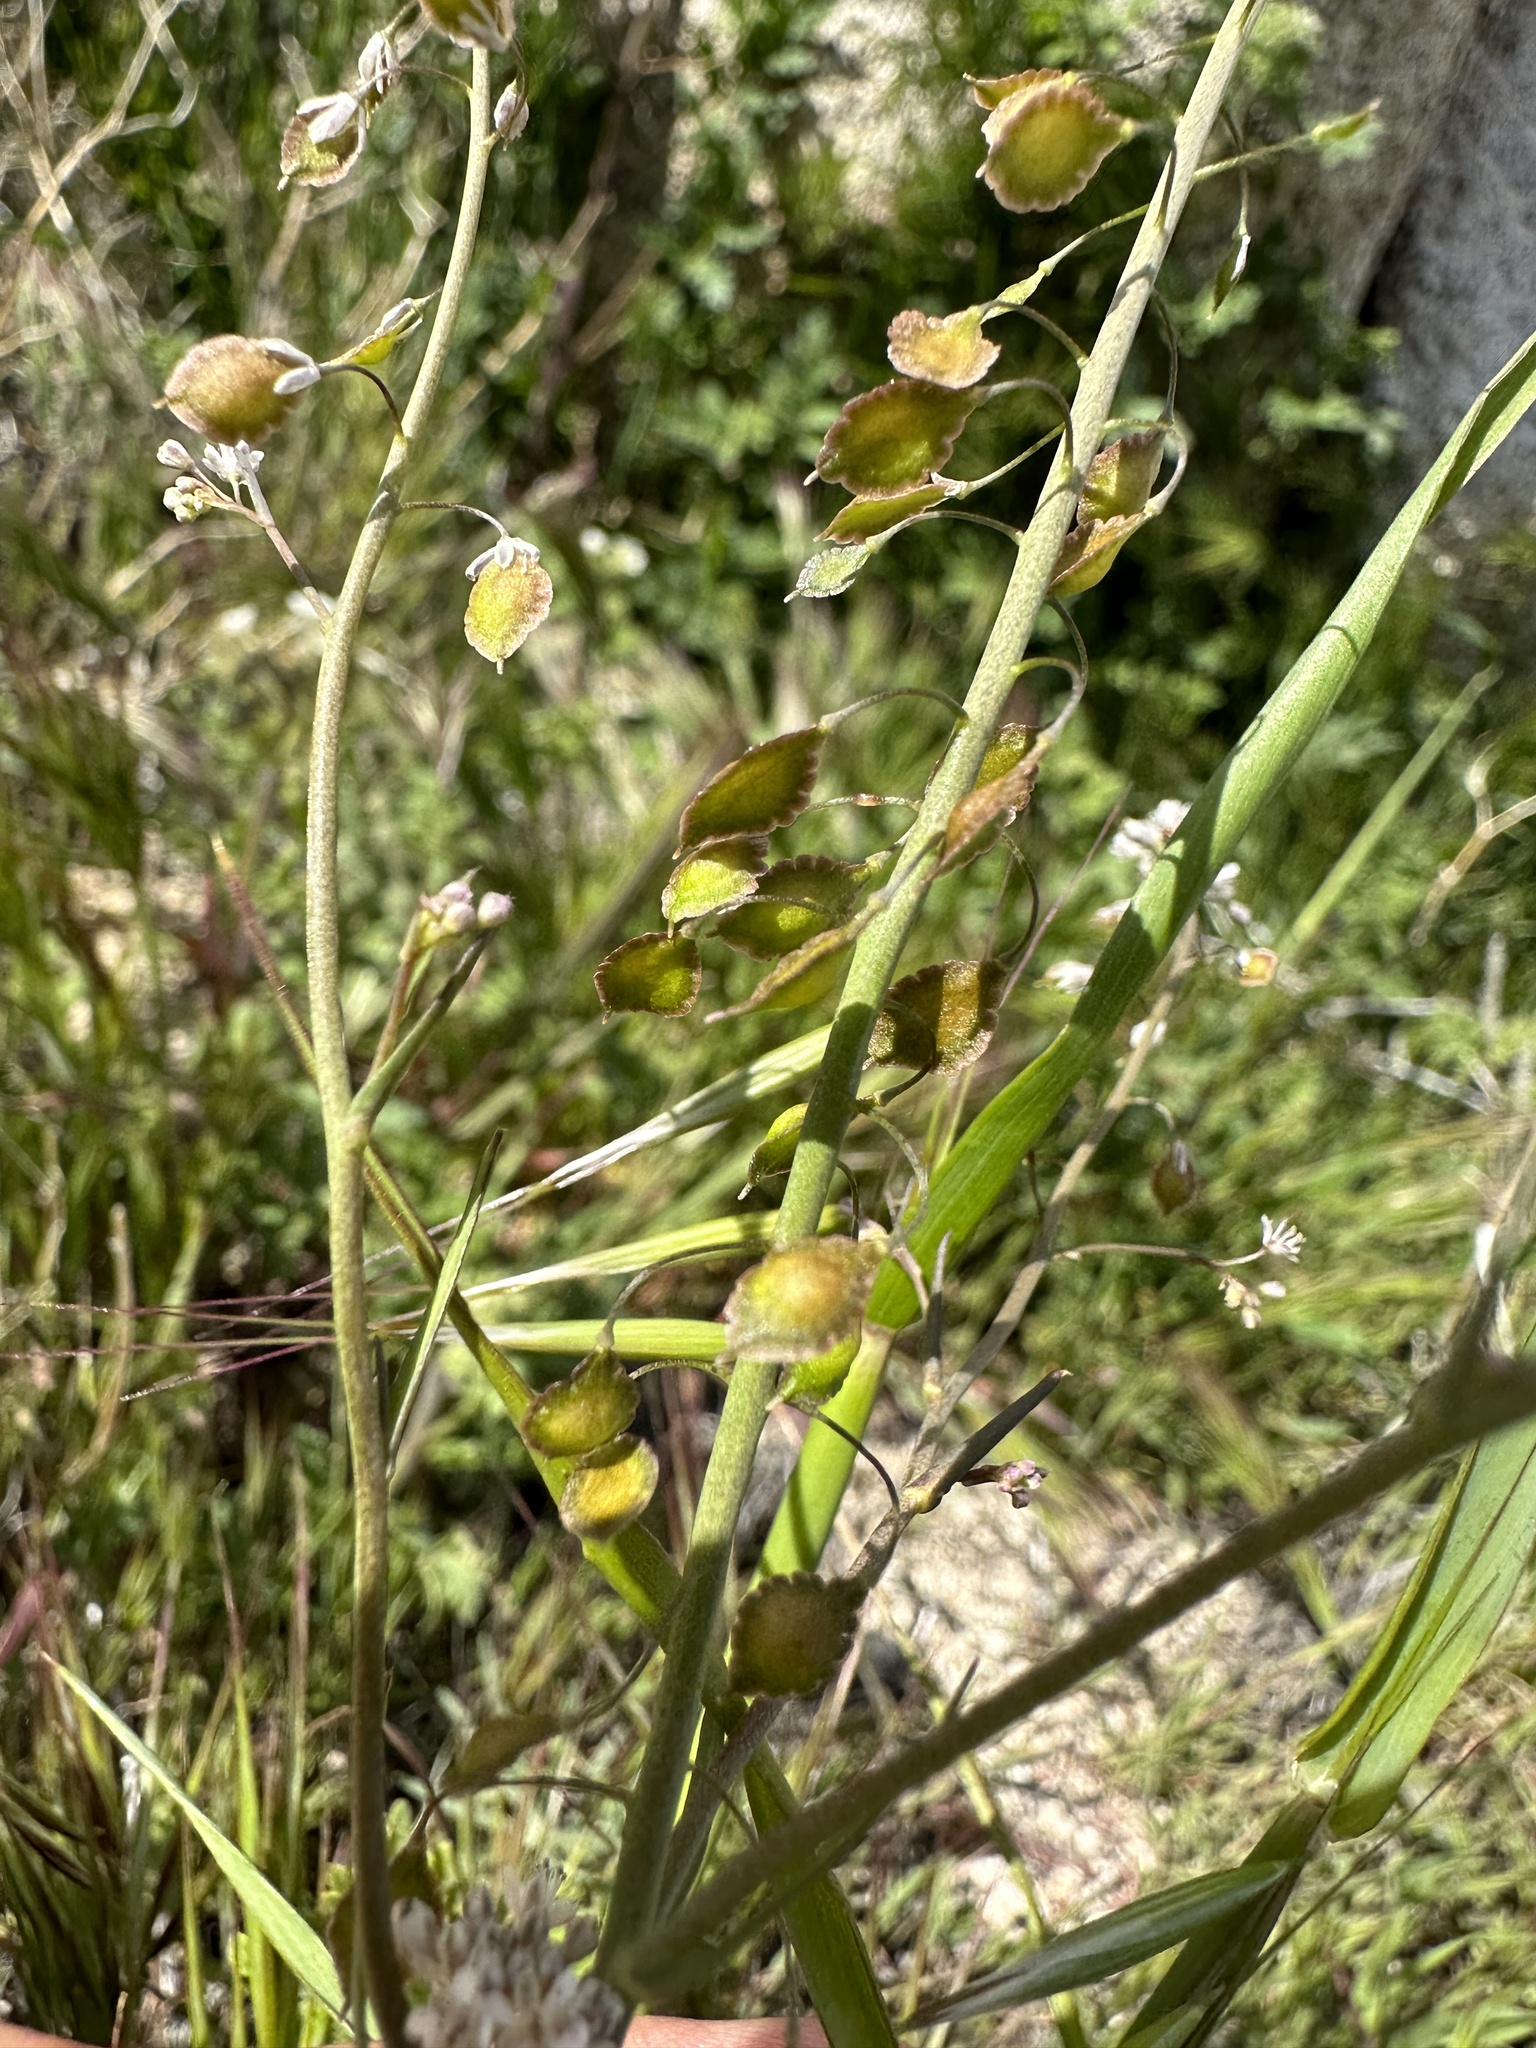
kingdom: Plantae
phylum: Tracheophyta
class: Magnoliopsida
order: Brassicales
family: Brassicaceae
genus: Thysanocarpus
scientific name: Thysanocarpus curvipes
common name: Sand fringepod
